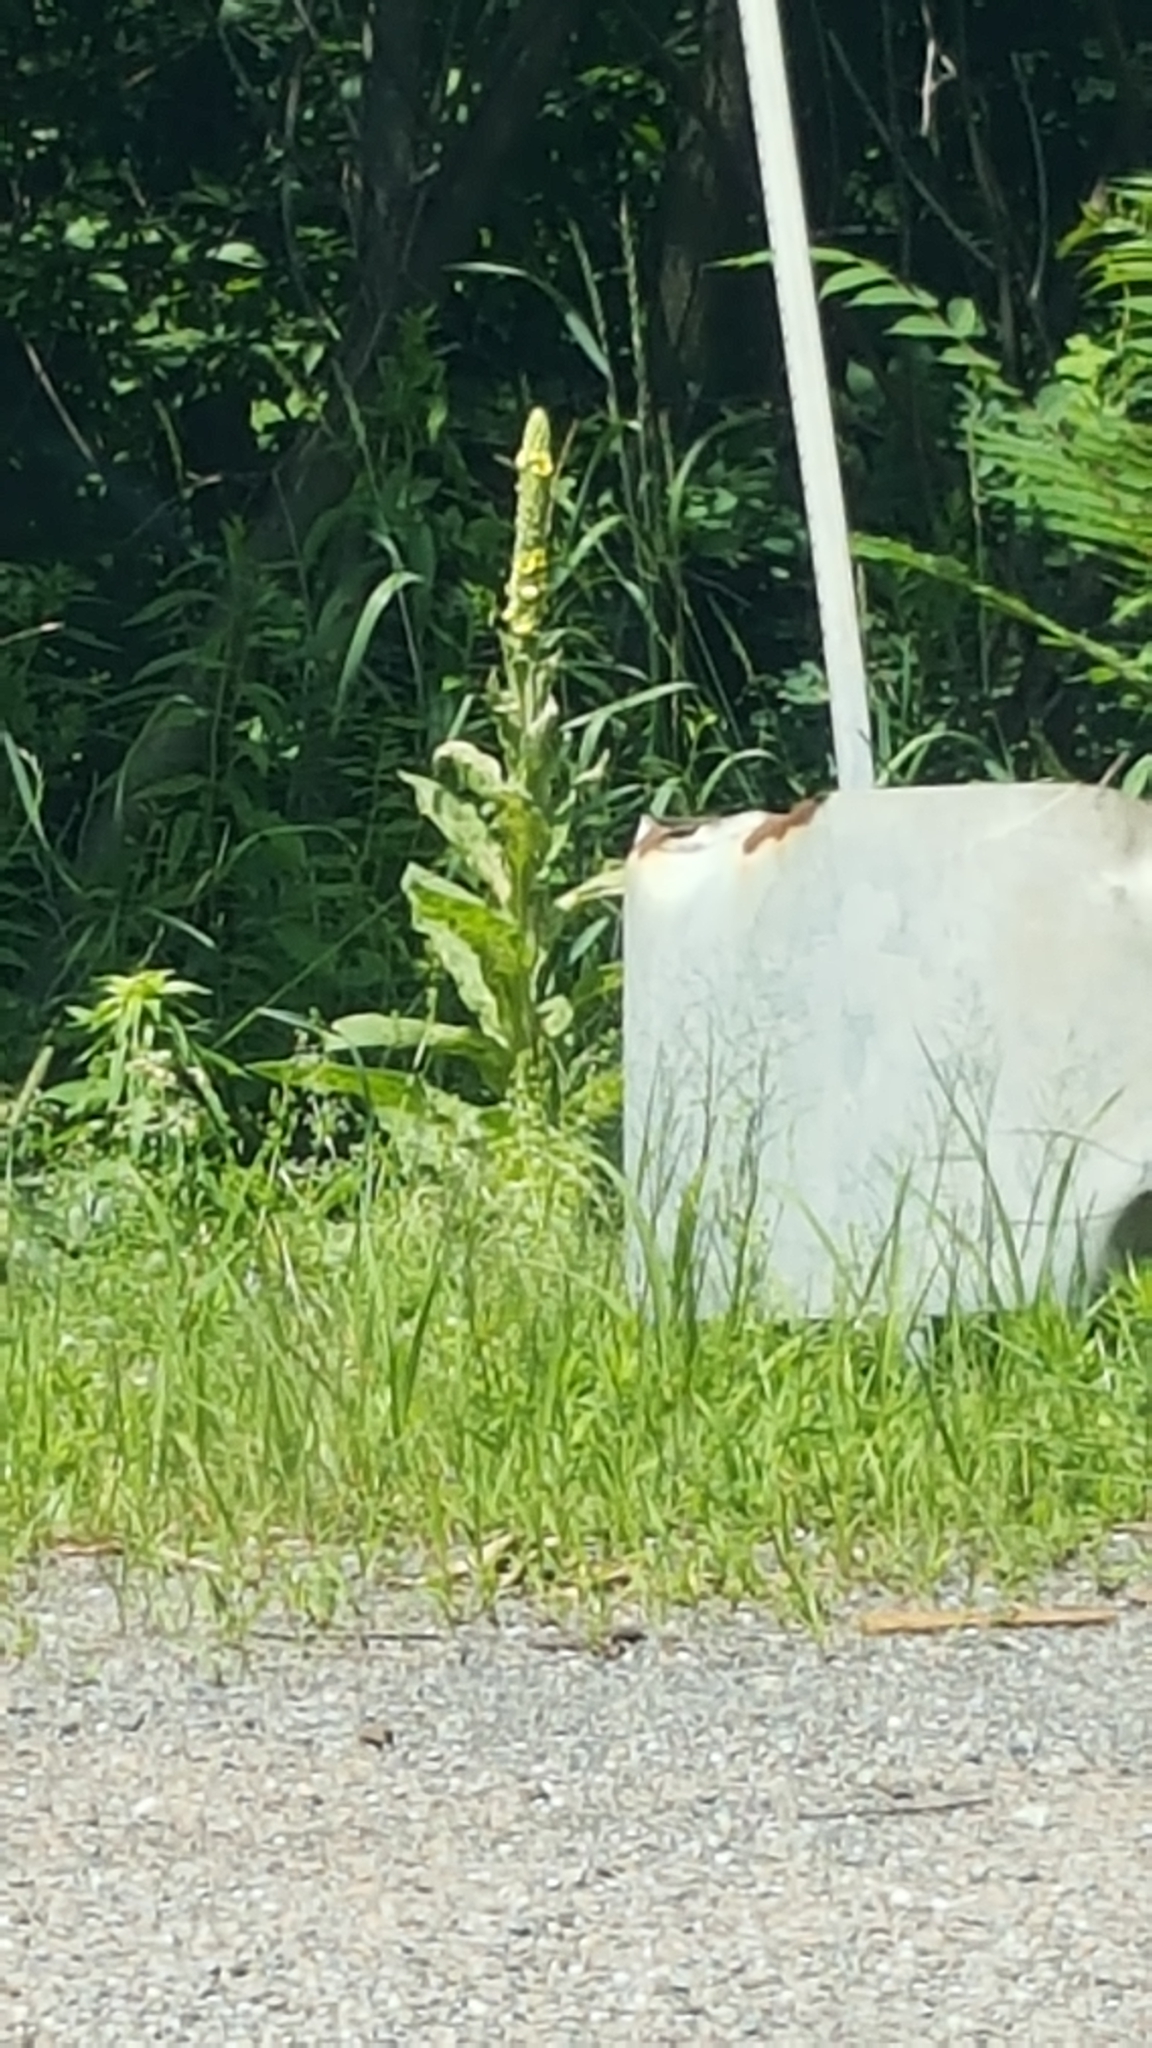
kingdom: Plantae
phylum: Tracheophyta
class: Magnoliopsida
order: Lamiales
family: Scrophulariaceae
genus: Verbascum
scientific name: Verbascum thapsus
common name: Common mullein
